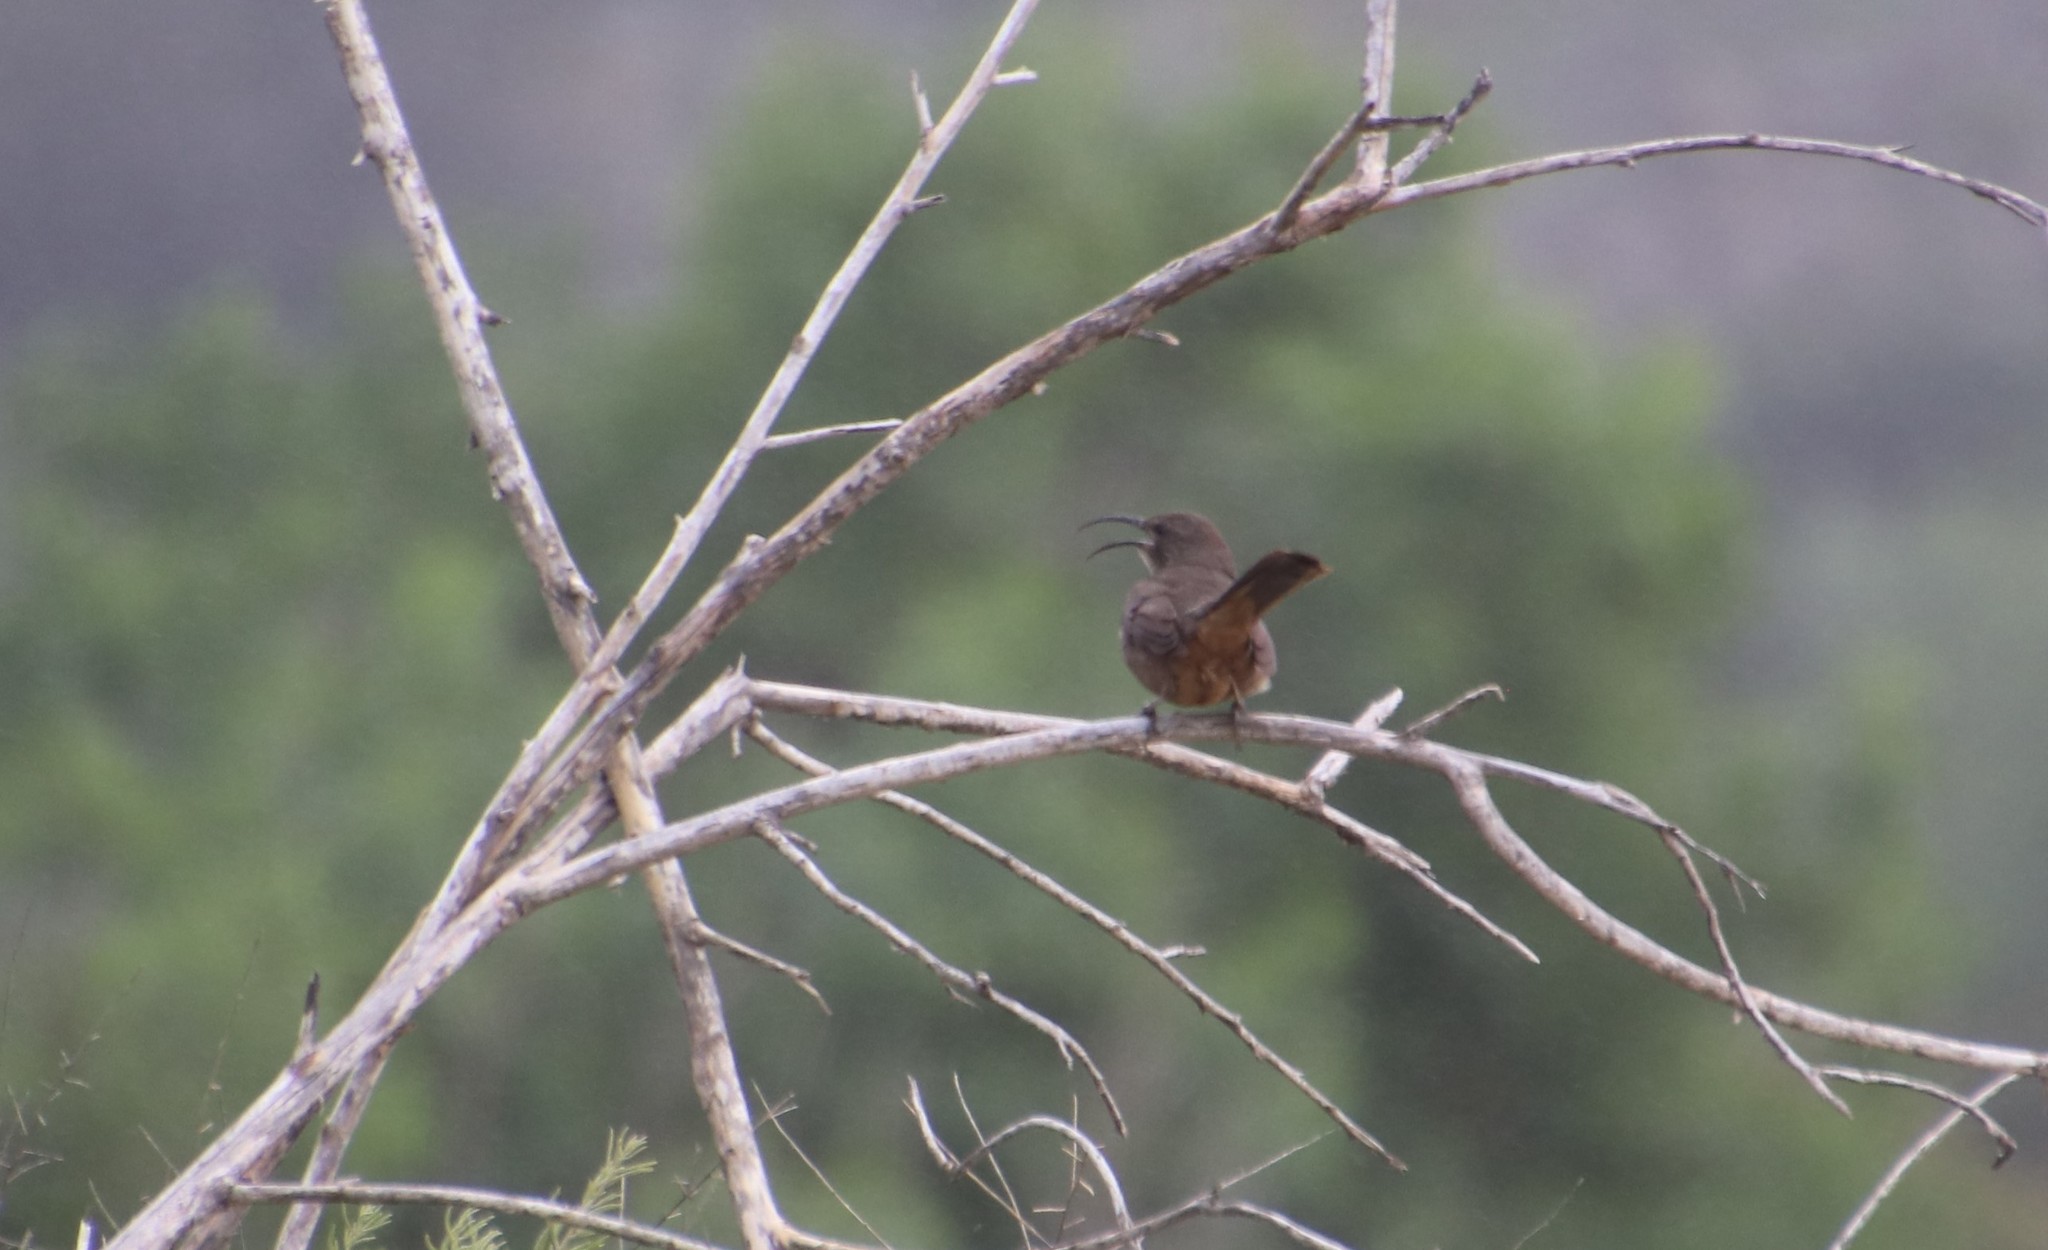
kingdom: Animalia
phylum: Chordata
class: Aves
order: Passeriformes
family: Mimidae
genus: Toxostoma
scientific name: Toxostoma redivivum
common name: California thrasher
